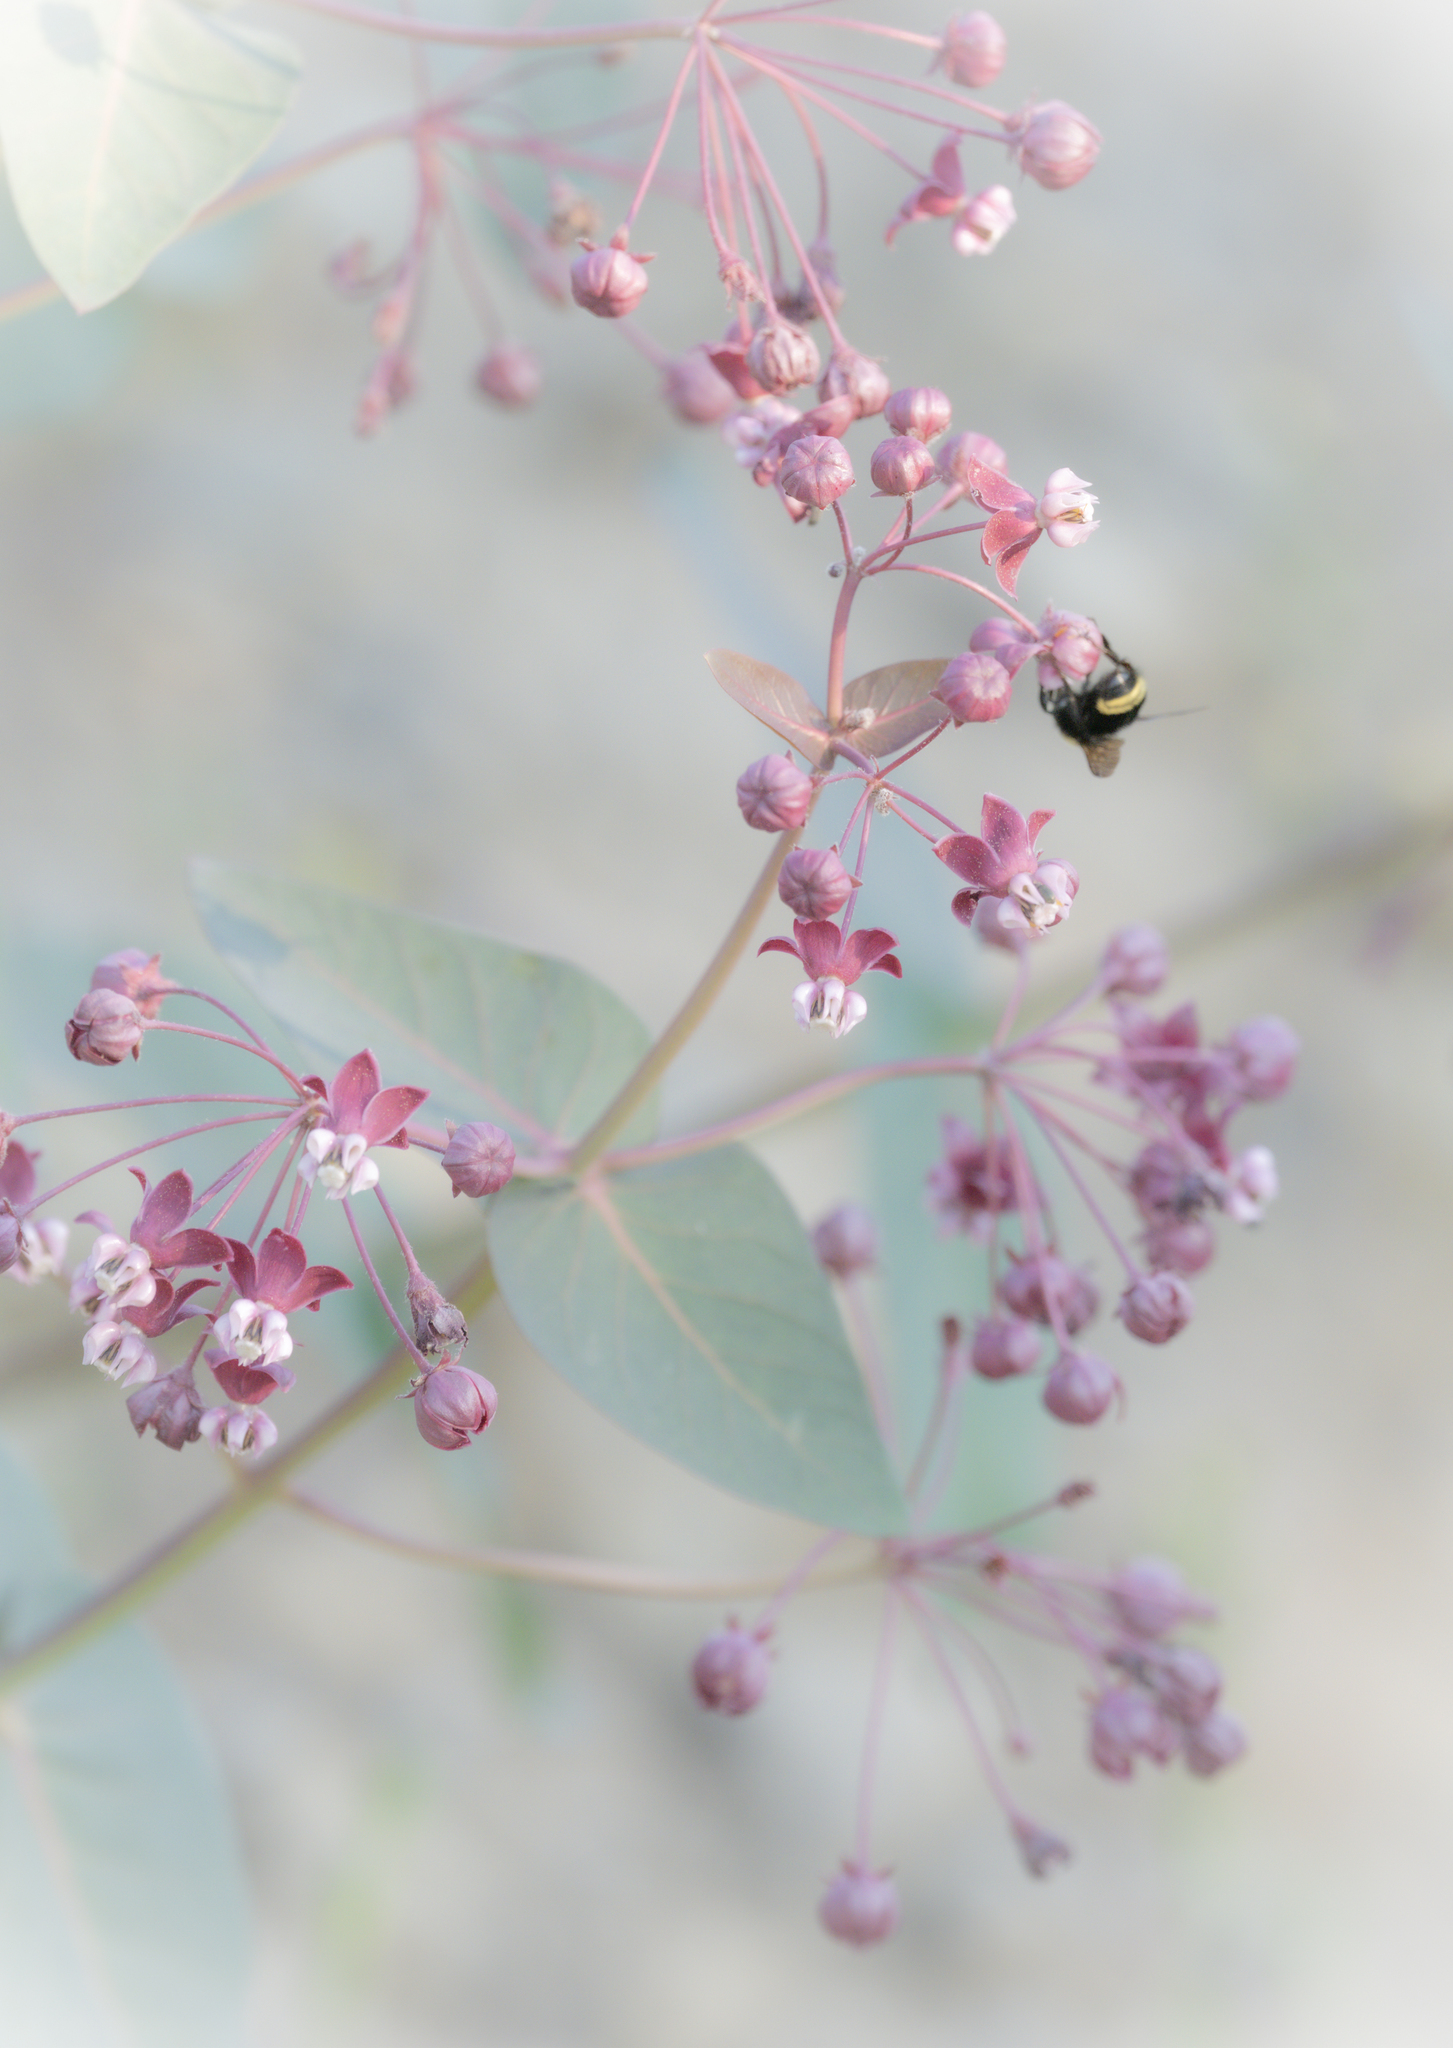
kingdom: Plantae
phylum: Tracheophyta
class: Magnoliopsida
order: Gentianales
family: Apocynaceae
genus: Asclepias
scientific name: Asclepias cordifolia
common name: Purple milkweed
